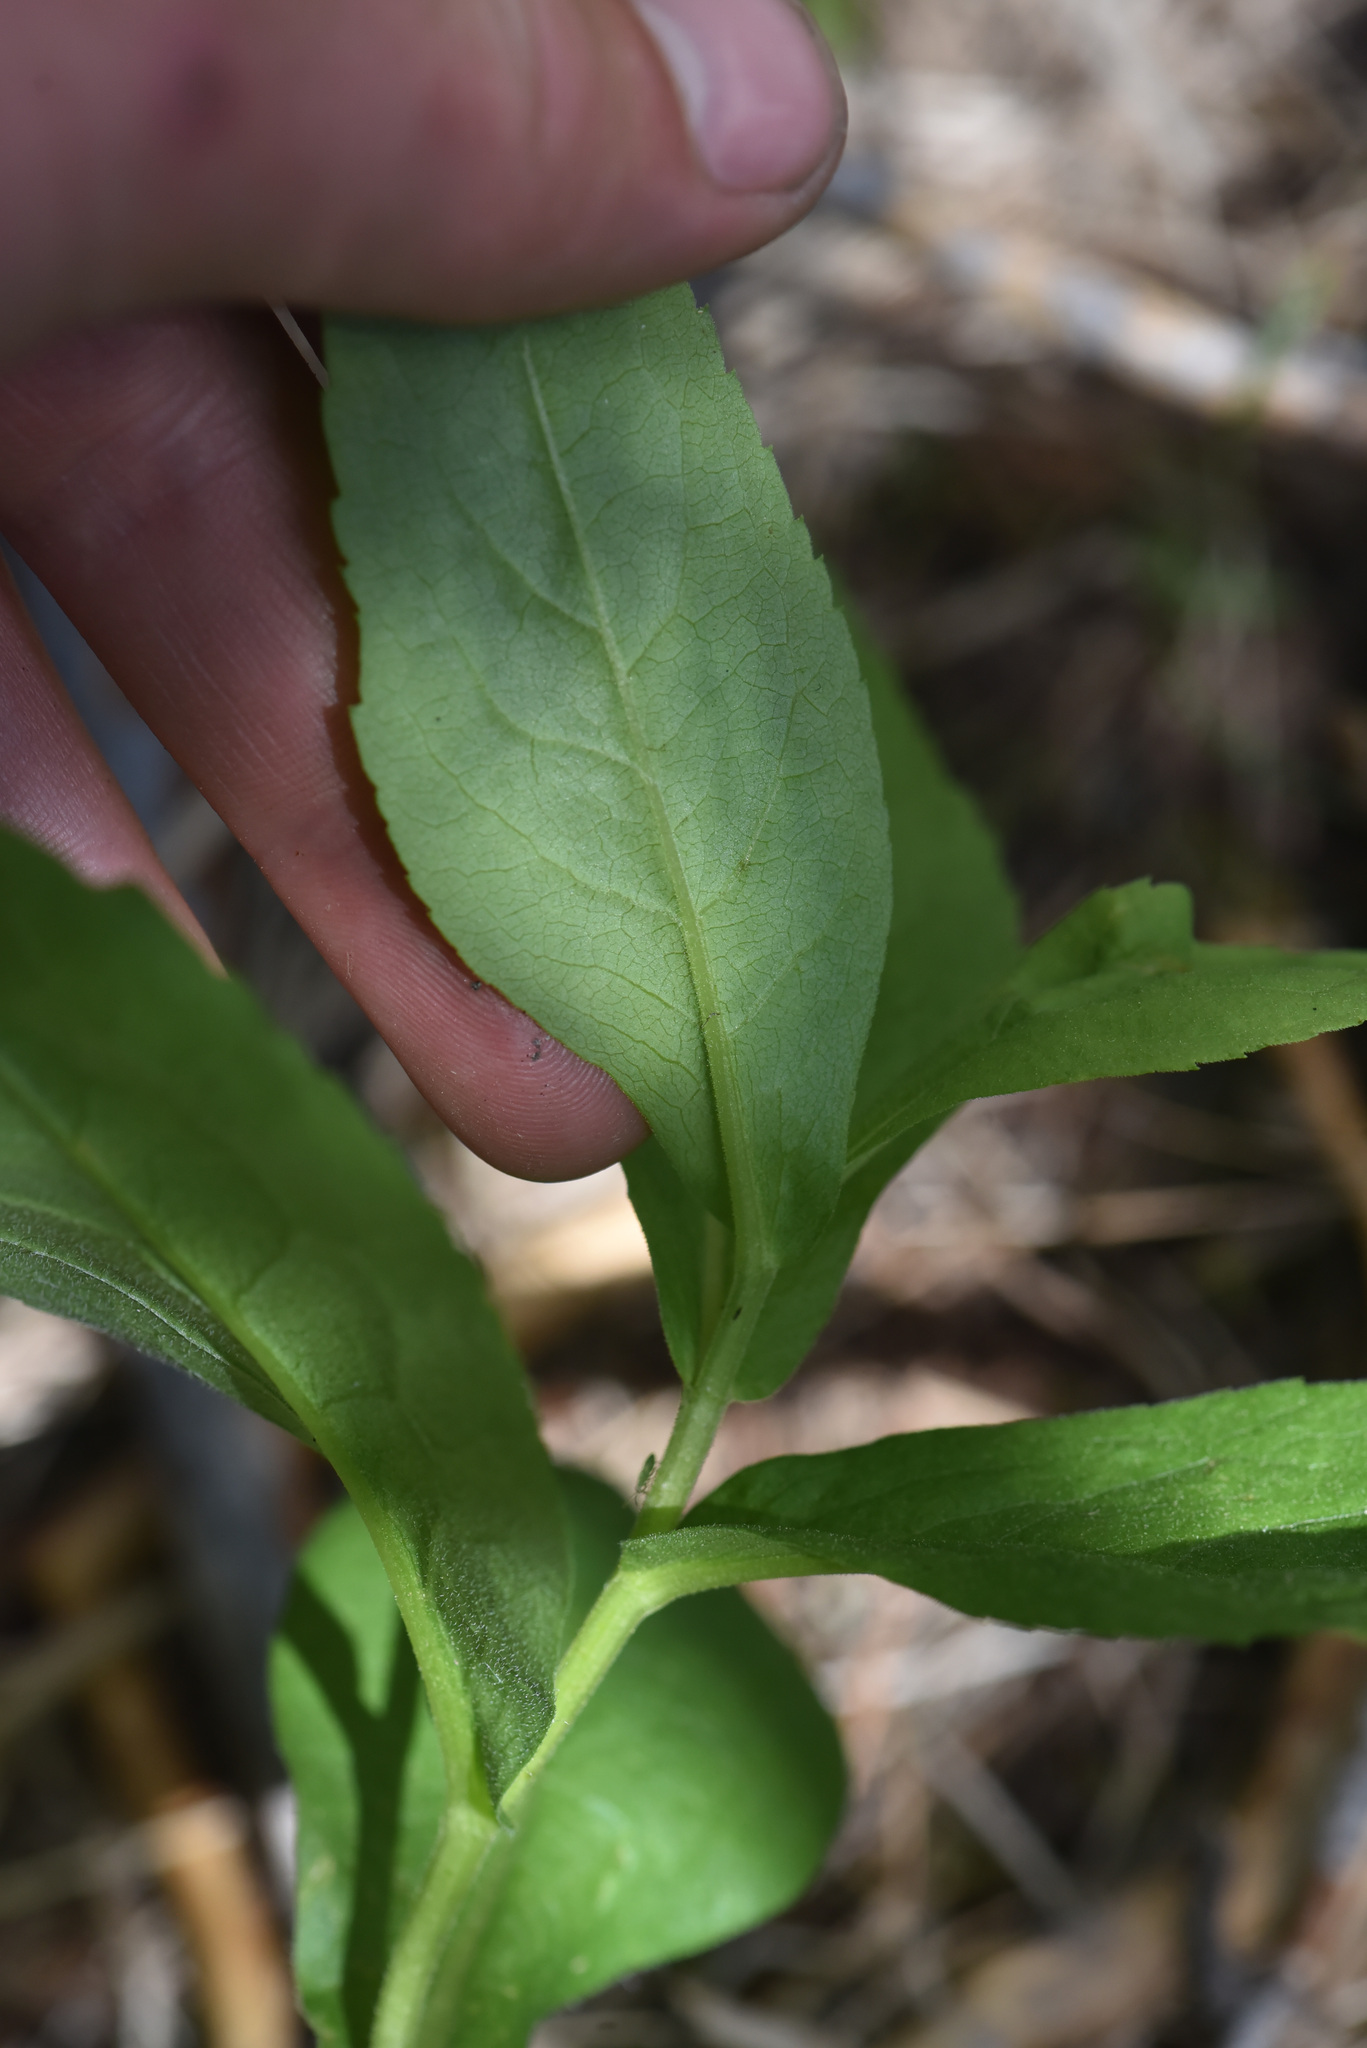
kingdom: Plantae
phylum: Tracheophyta
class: Magnoliopsida
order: Asterales
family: Asteraceae
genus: Eurybia
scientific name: Eurybia conspicua
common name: Showy aster
